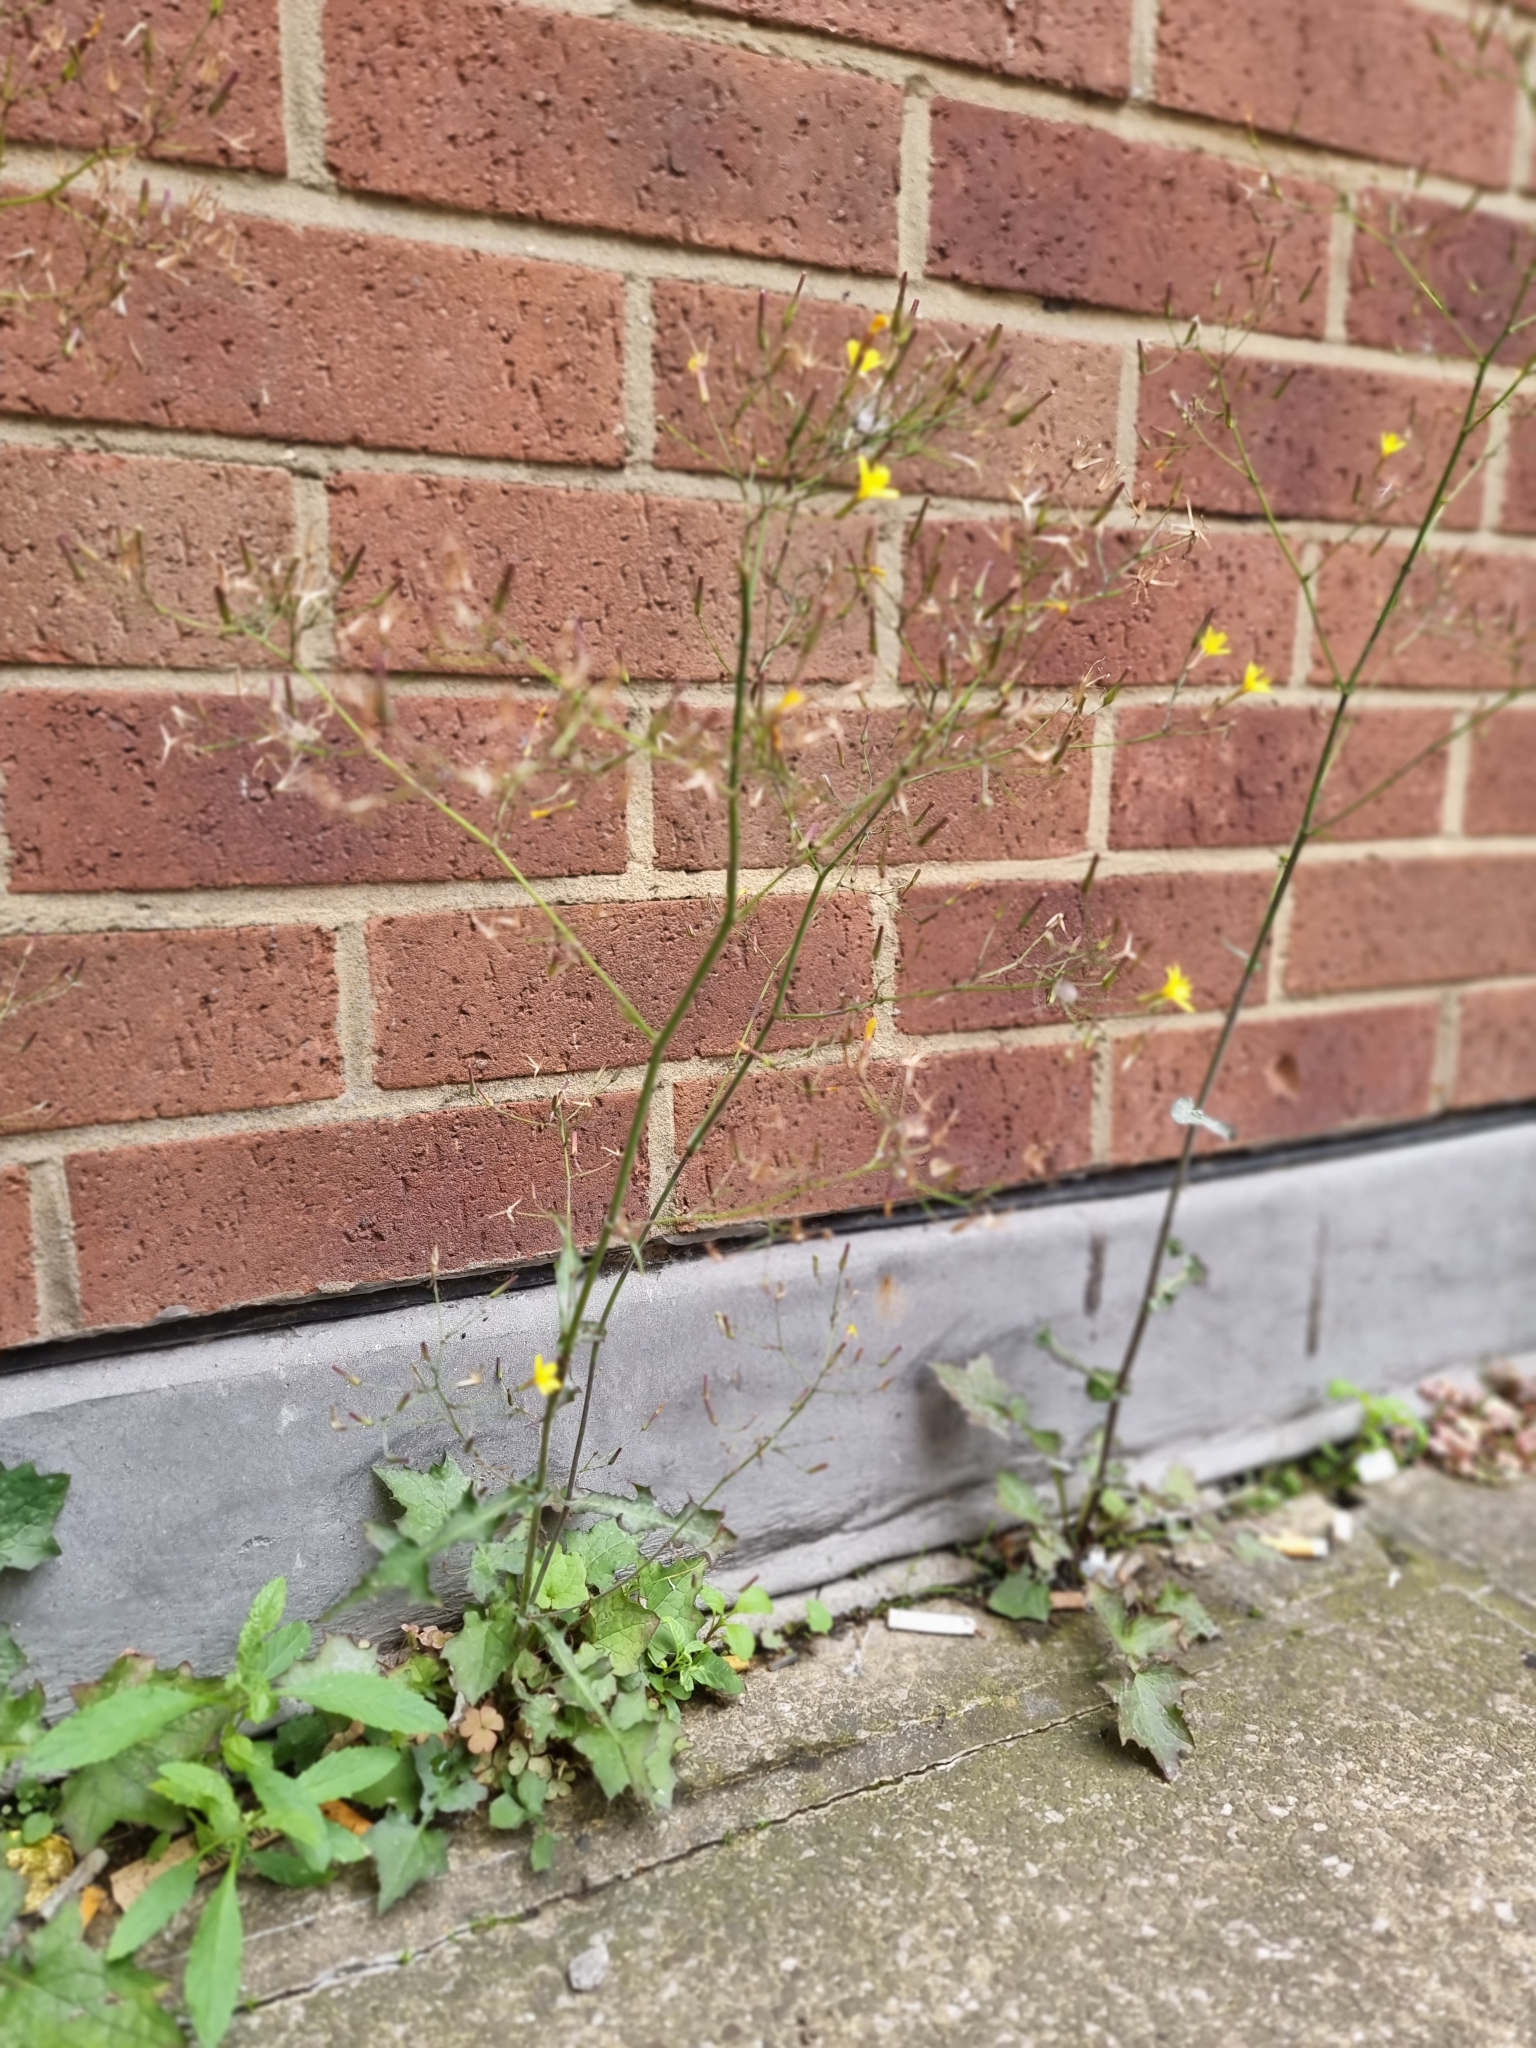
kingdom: Plantae
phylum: Tracheophyta
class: Magnoliopsida
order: Asterales
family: Asteraceae
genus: Mycelis
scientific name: Mycelis muralis
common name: Wall lettuce
